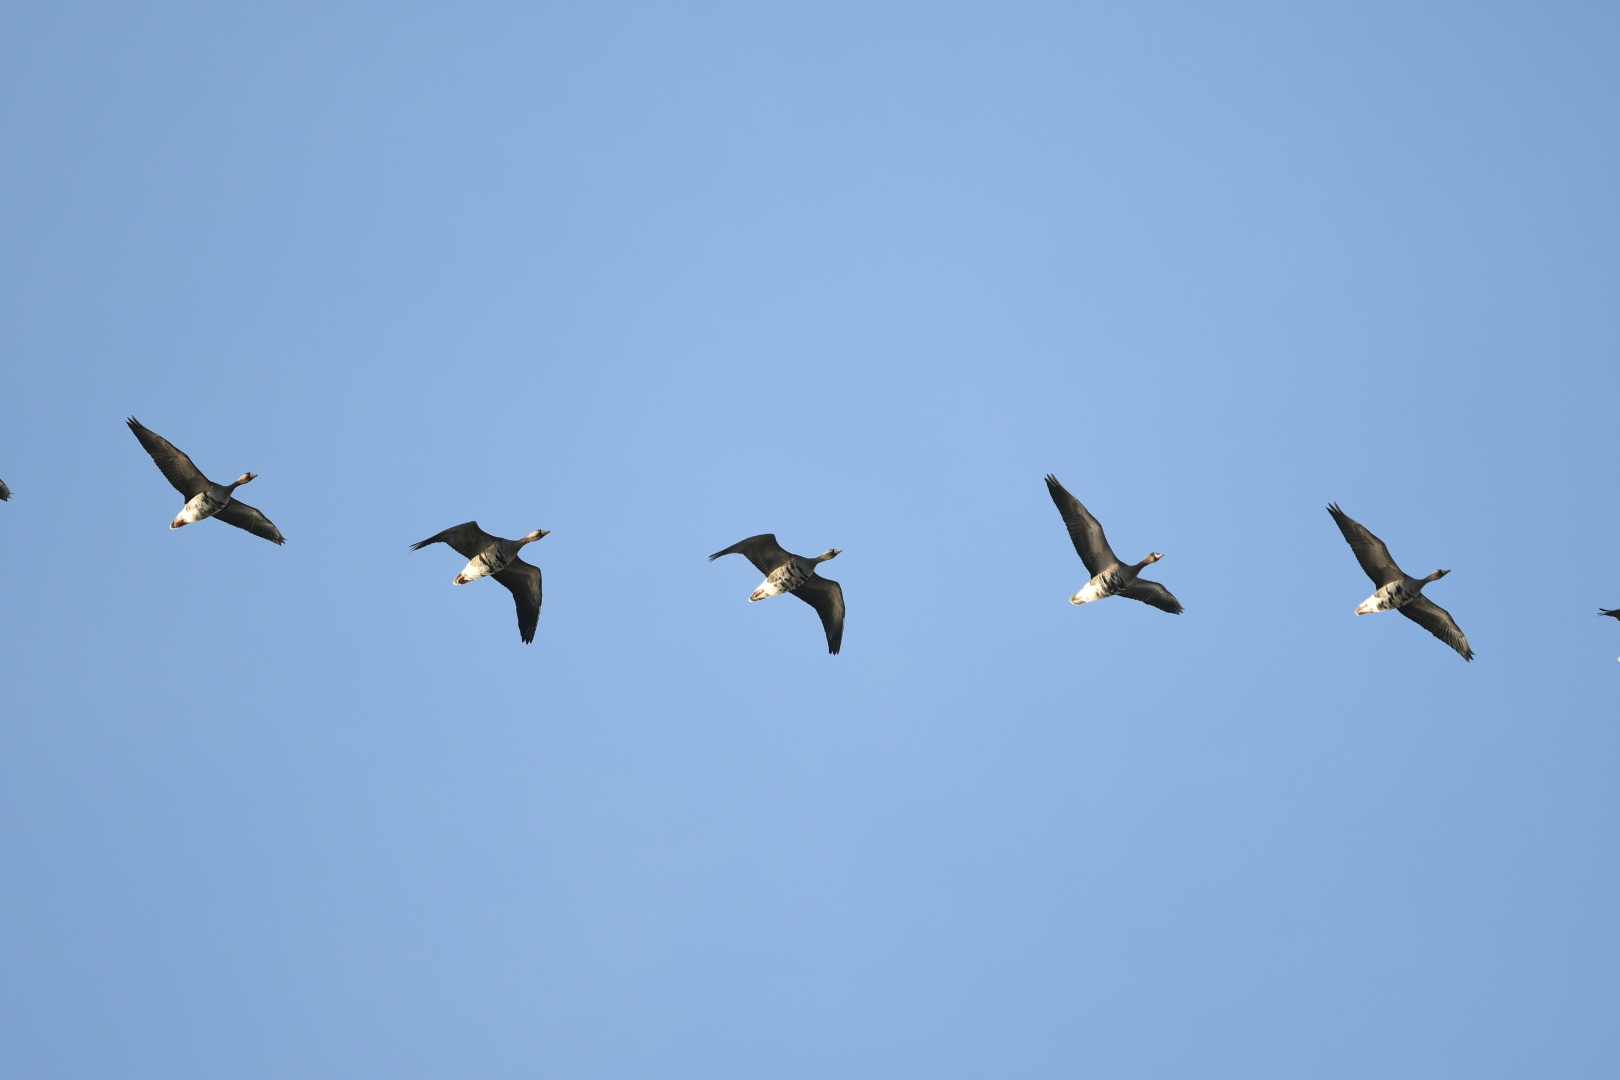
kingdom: Animalia
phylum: Chordata
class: Aves
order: Anseriformes
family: Anatidae
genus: Anser
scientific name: Anser albifrons
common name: Greater white-fronted goose
